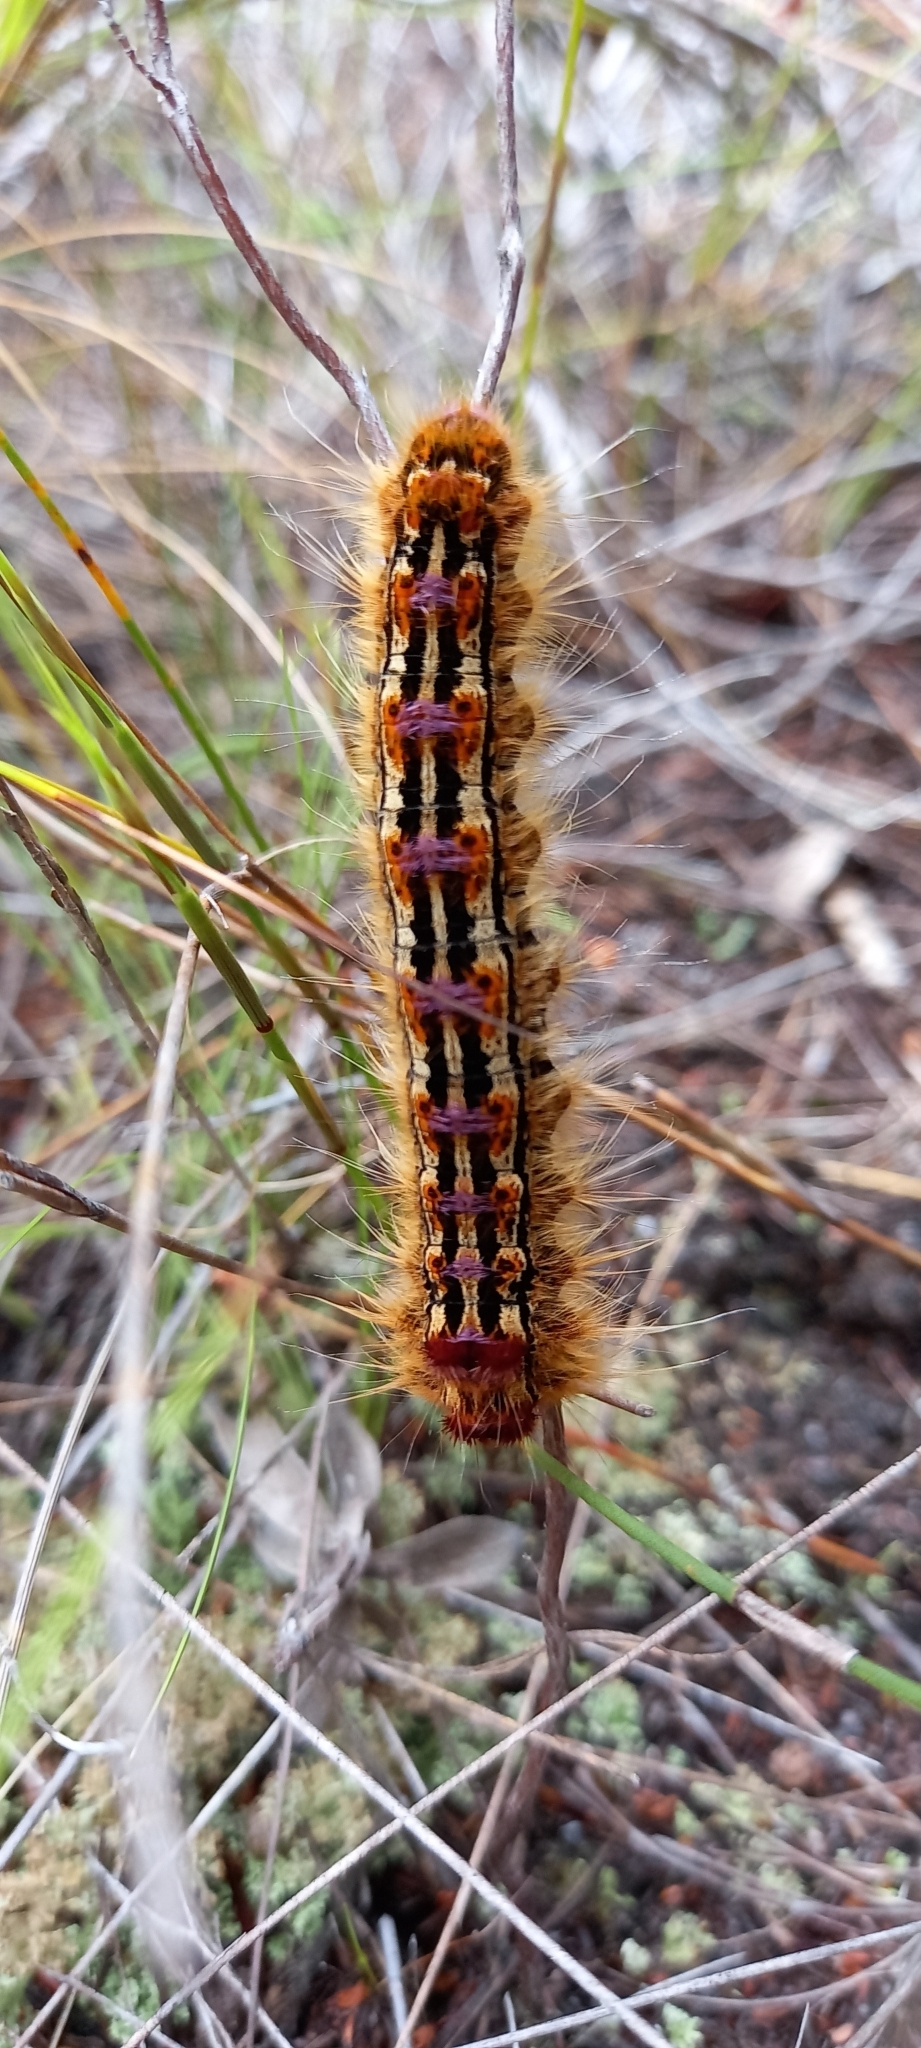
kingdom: Animalia
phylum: Arthropoda
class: Insecta
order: Lepidoptera
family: Lasiocampidae
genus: Eutricha
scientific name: Eutricha bifascia
